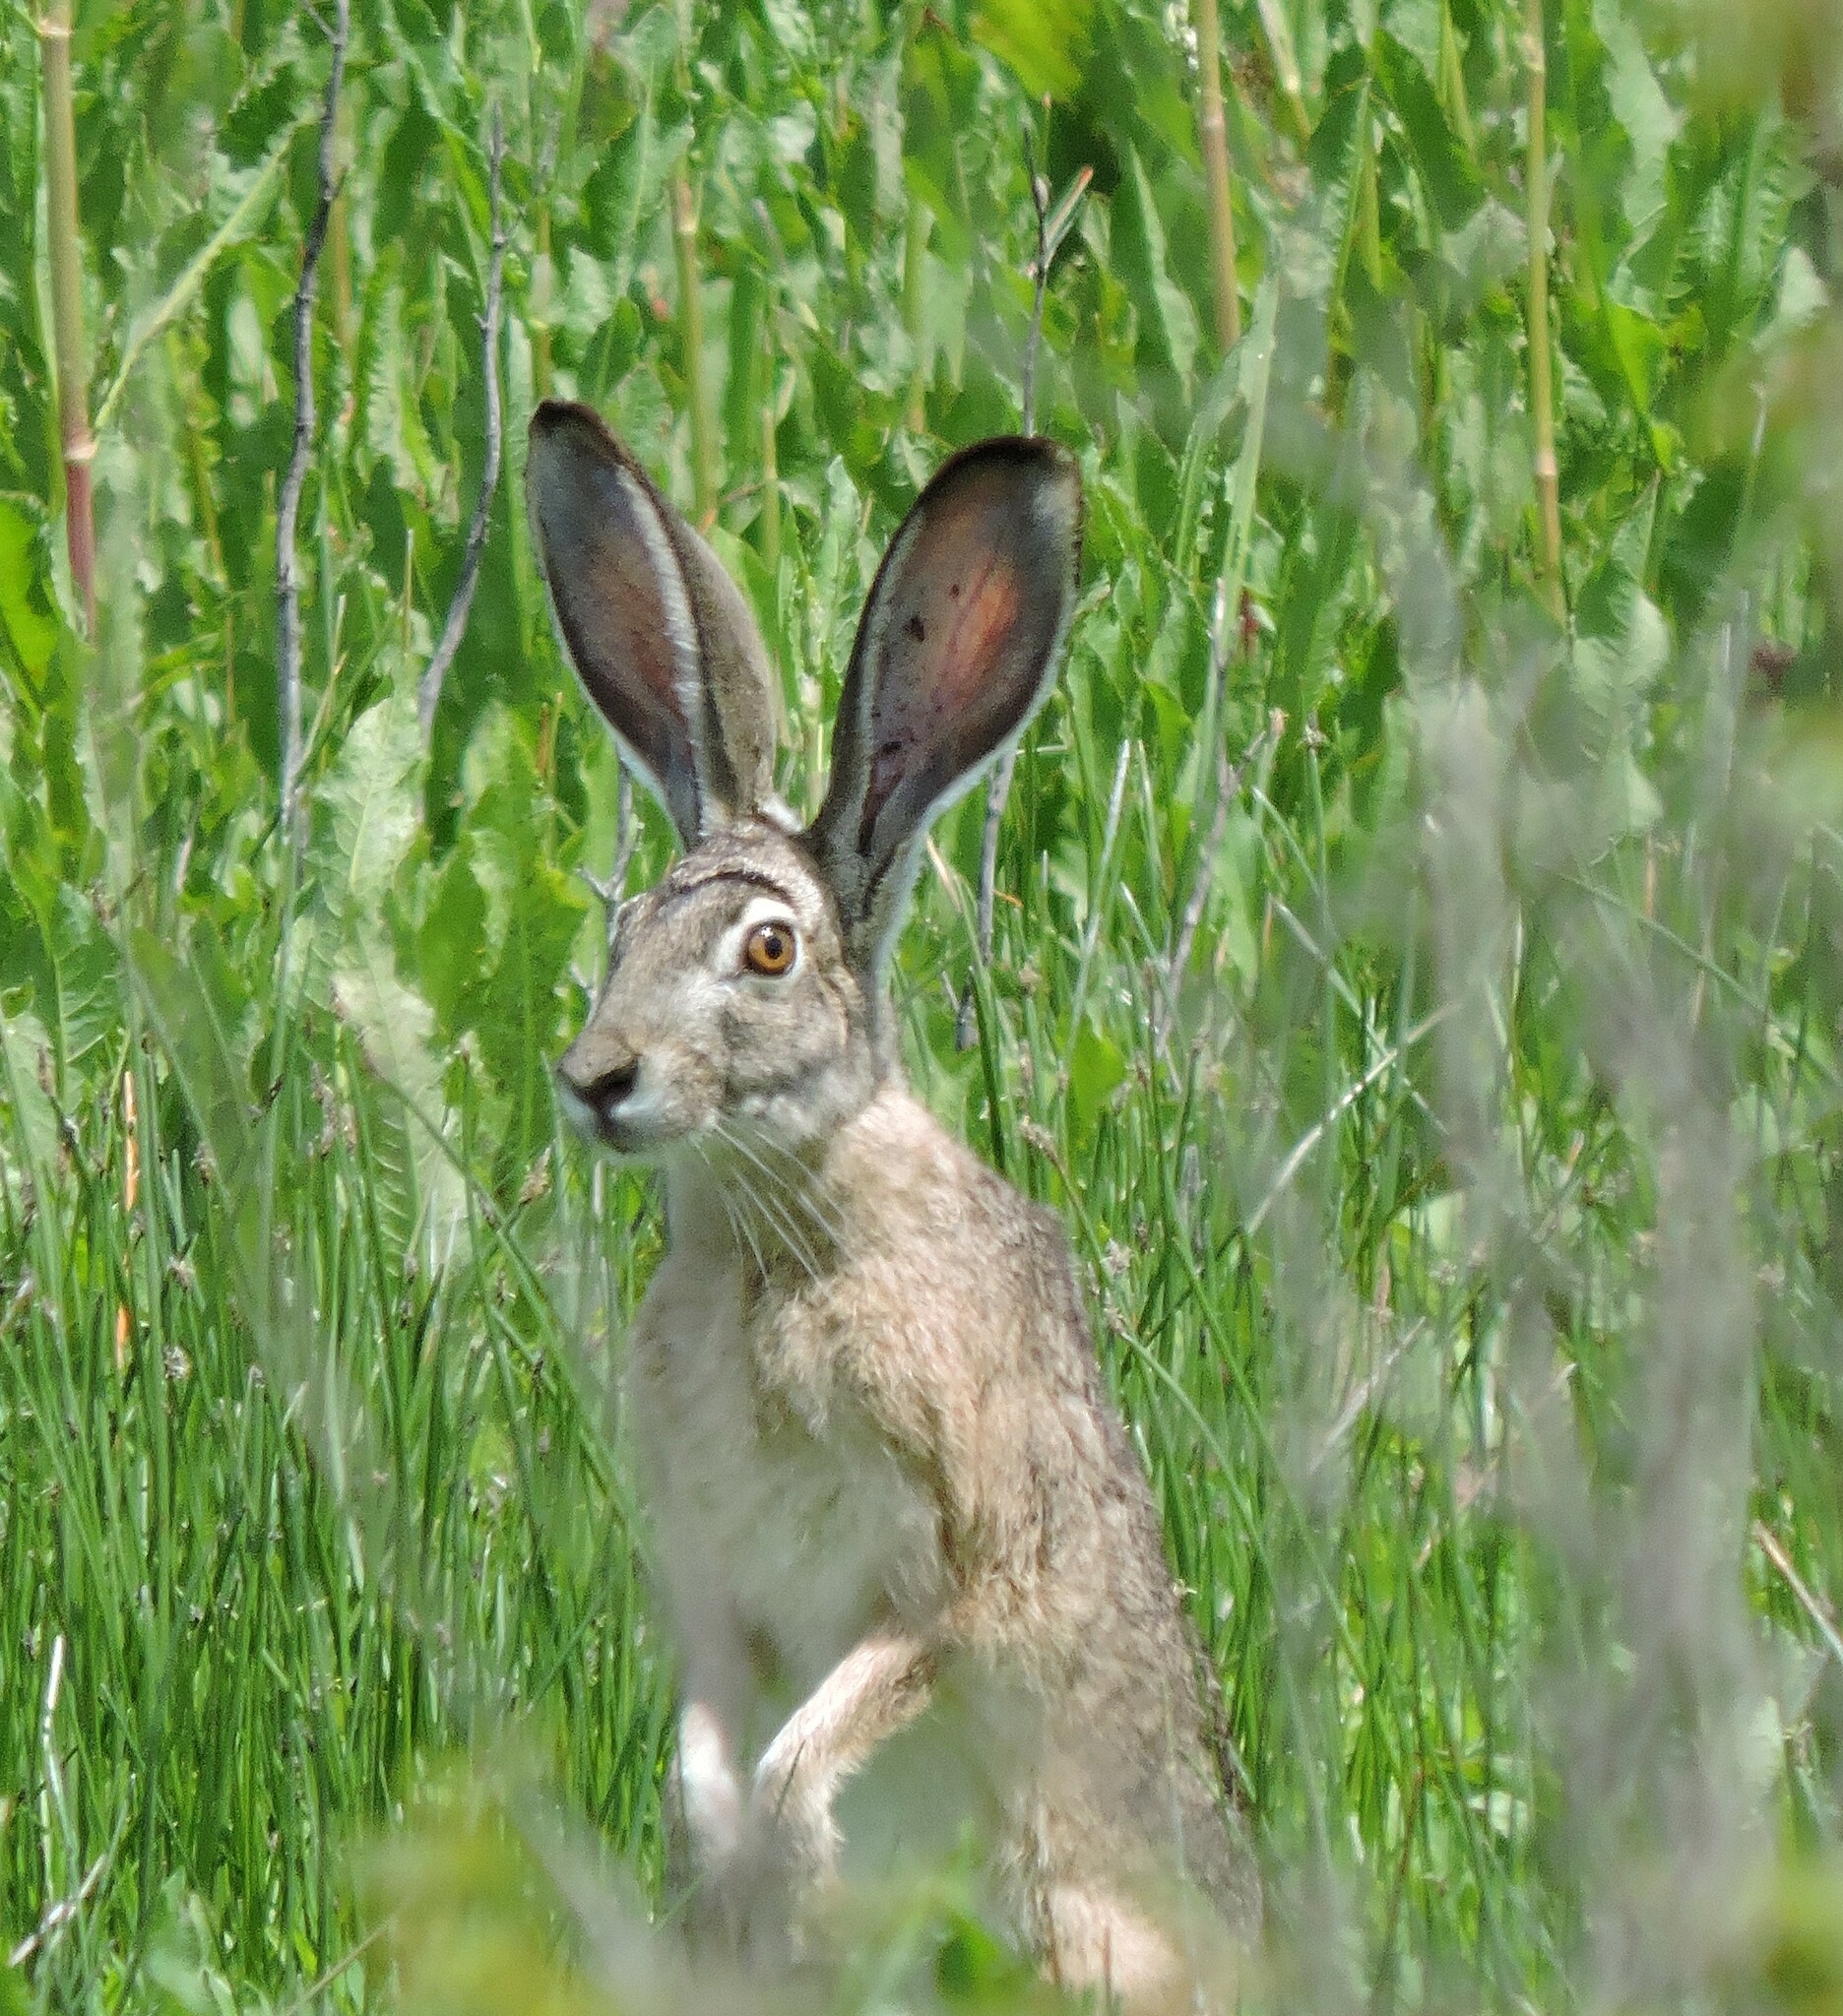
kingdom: Animalia
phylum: Chordata
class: Mammalia
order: Lagomorpha
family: Leporidae
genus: Lepus
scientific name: Lepus californicus
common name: Black-tailed jackrabbit
